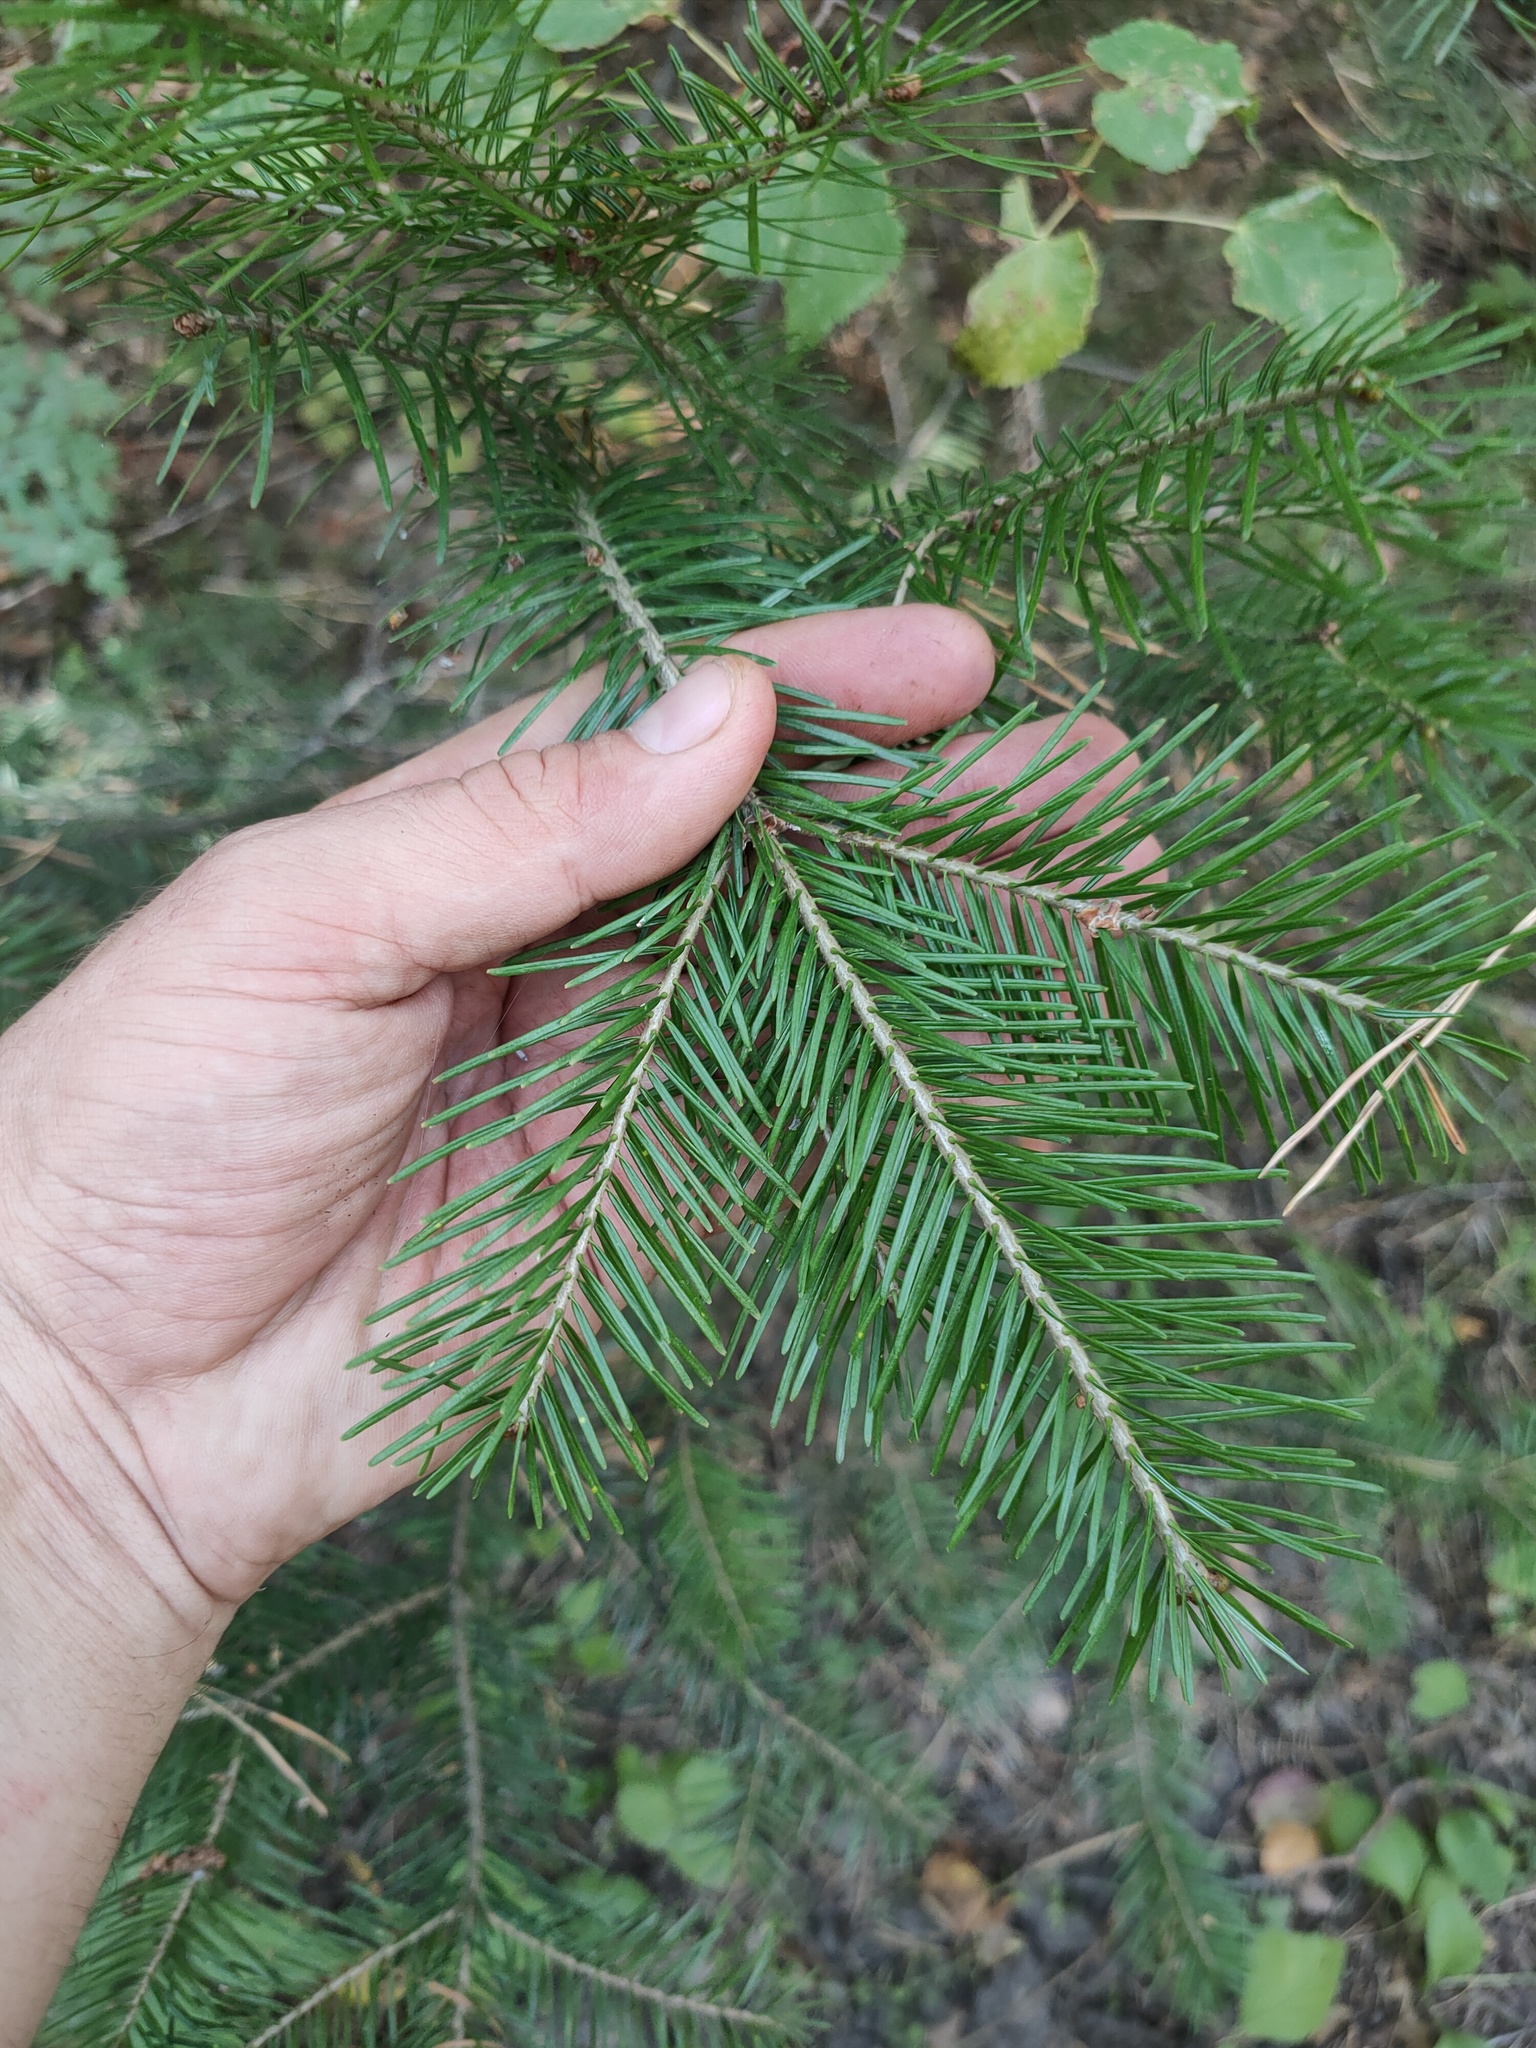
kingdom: Plantae
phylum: Tracheophyta
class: Pinopsida
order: Pinales
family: Pinaceae
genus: Abies
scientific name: Abies sibirica
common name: Siberian fir
